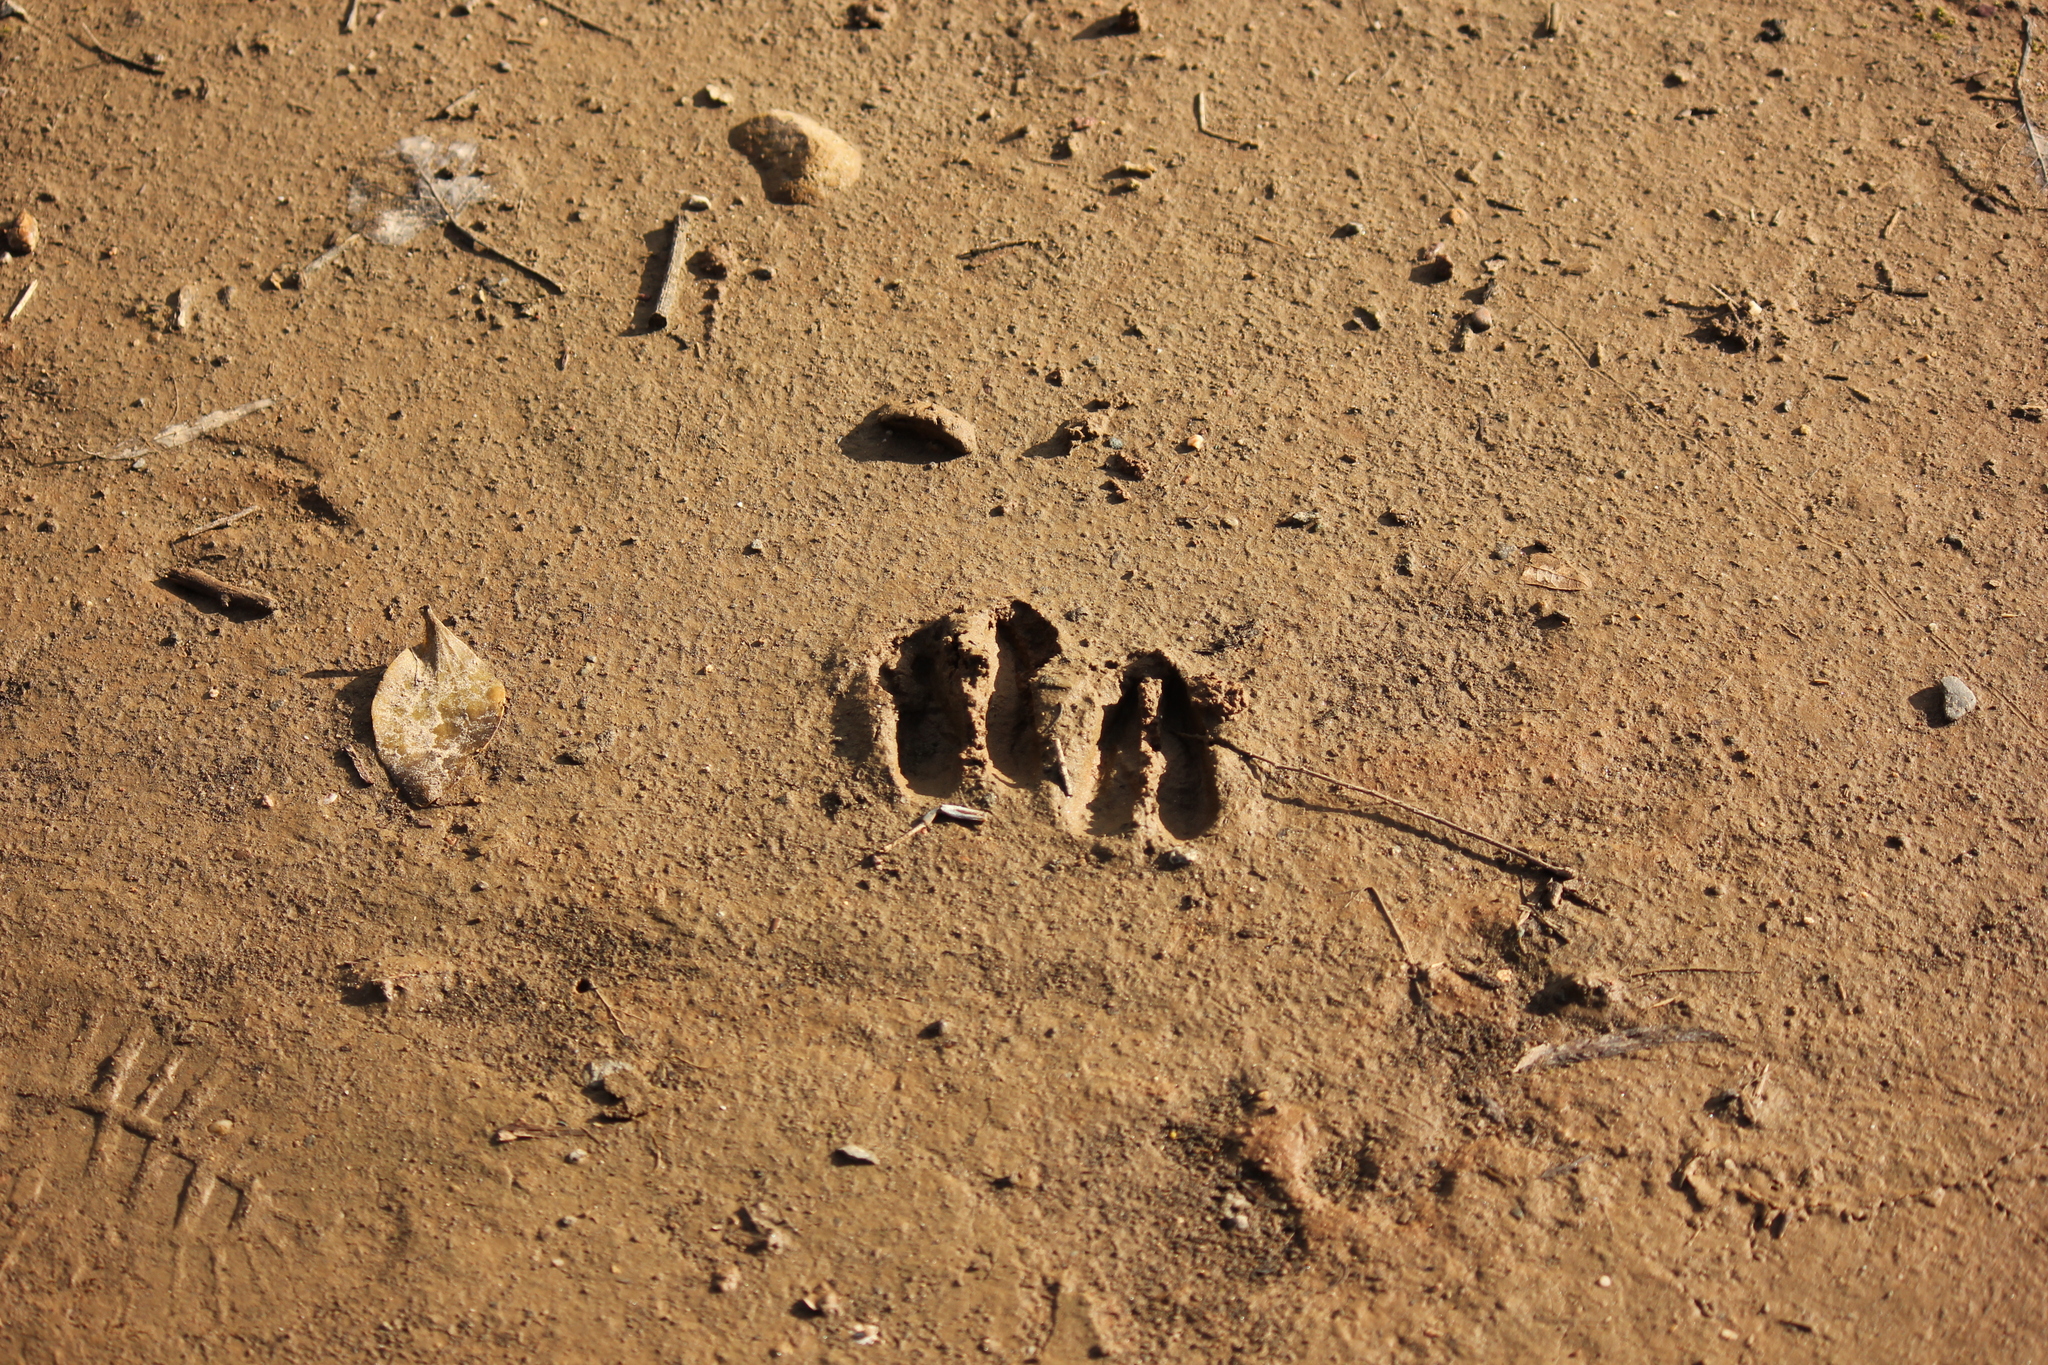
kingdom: Animalia
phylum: Chordata
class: Mammalia
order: Artiodactyla
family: Cervidae
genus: Odocoileus
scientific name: Odocoileus hemionus
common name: Mule deer
